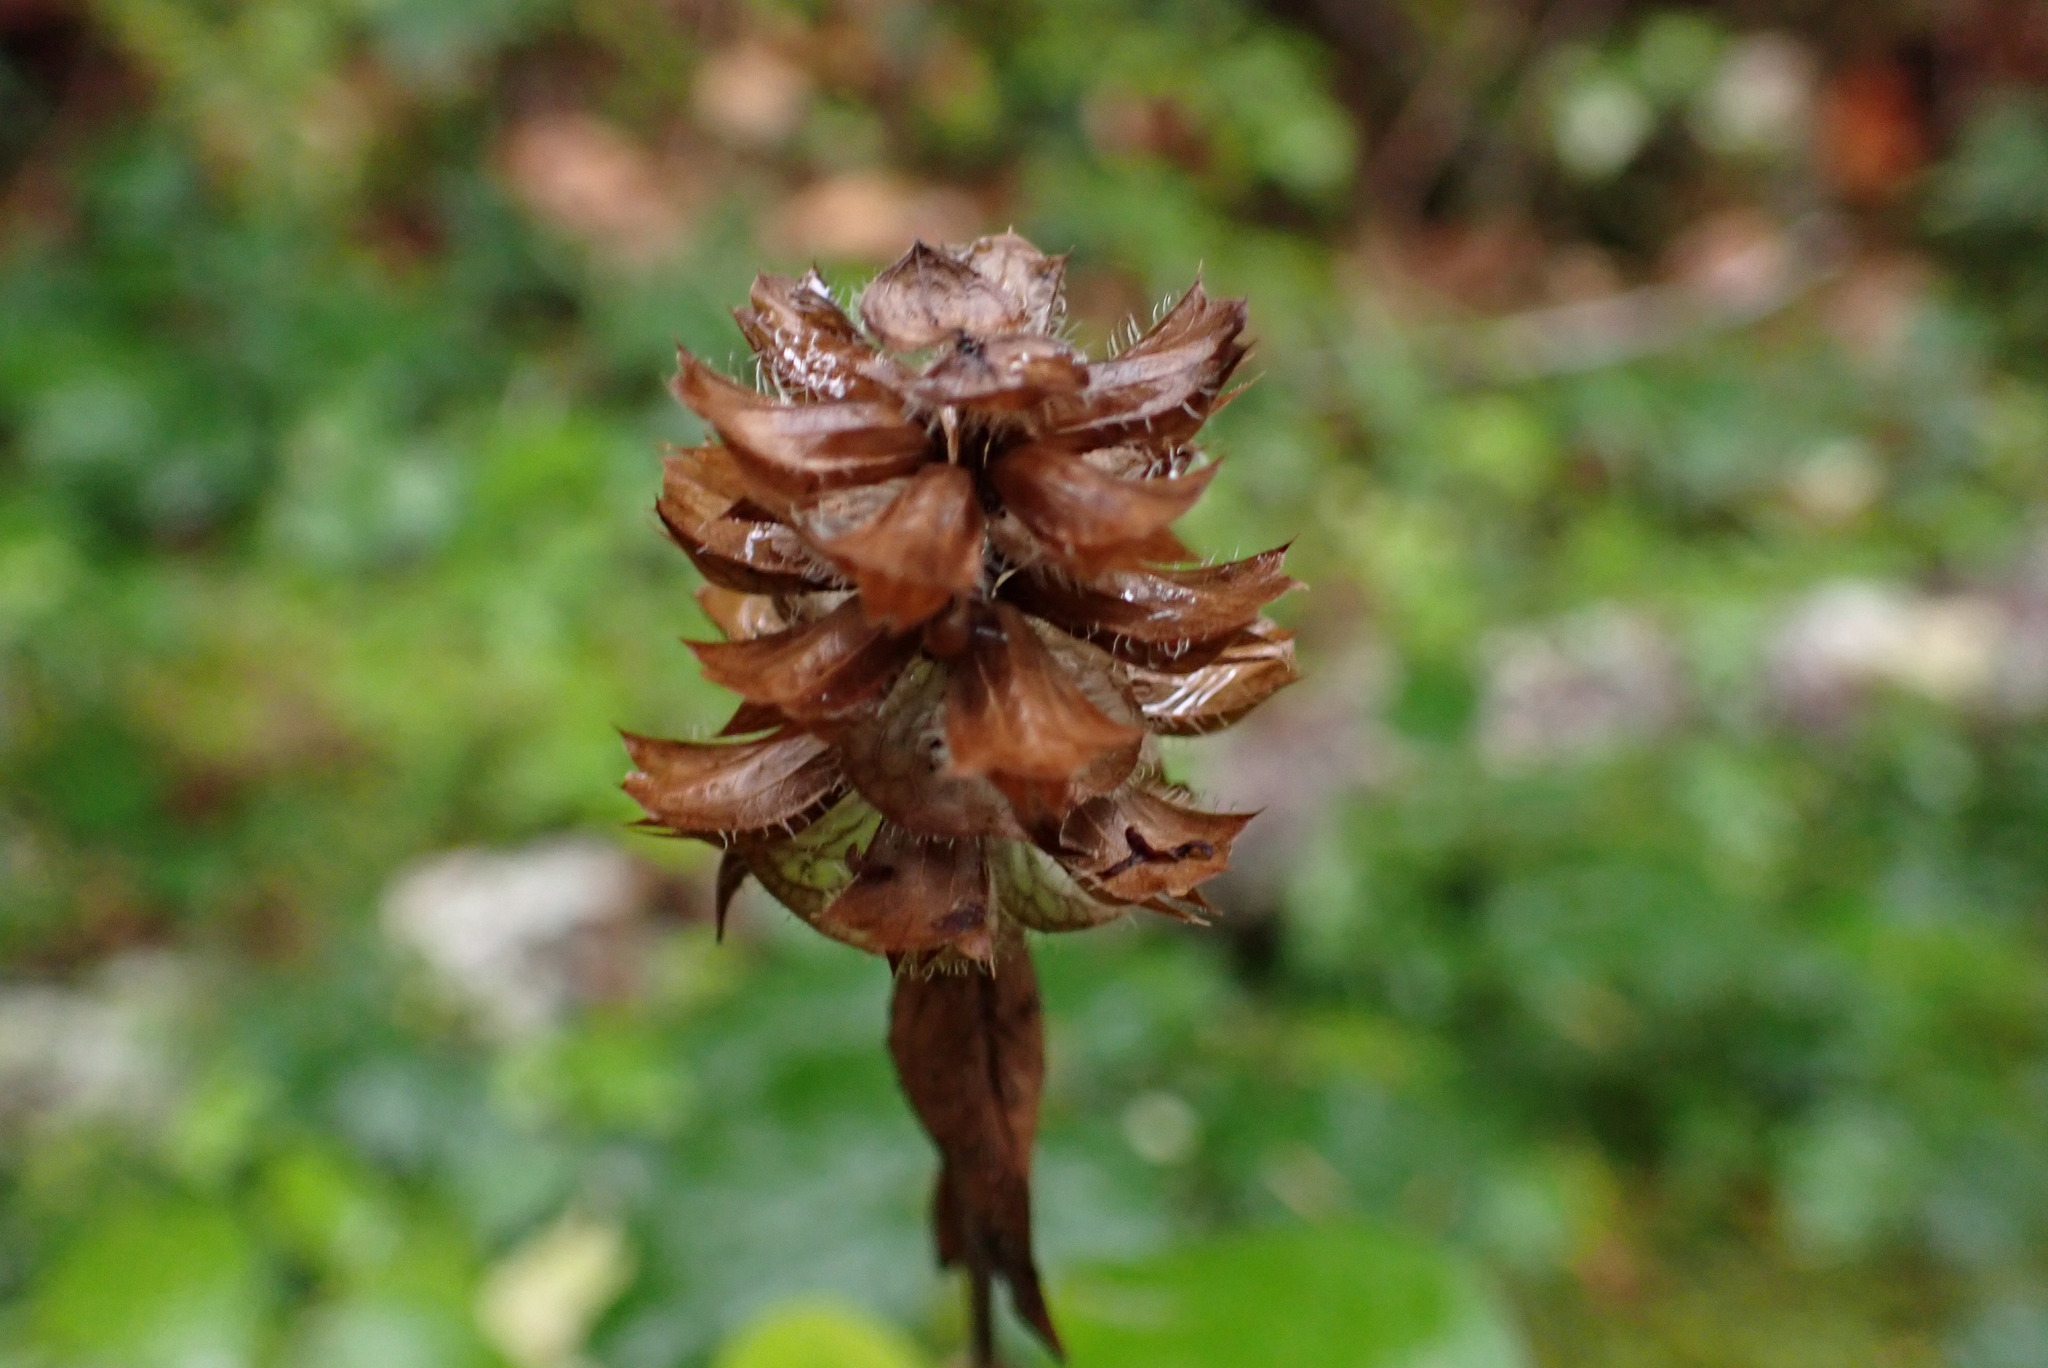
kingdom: Plantae
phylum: Tracheophyta
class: Magnoliopsida
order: Lamiales
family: Lamiaceae
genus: Prunella
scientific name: Prunella vulgaris
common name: Heal-all
